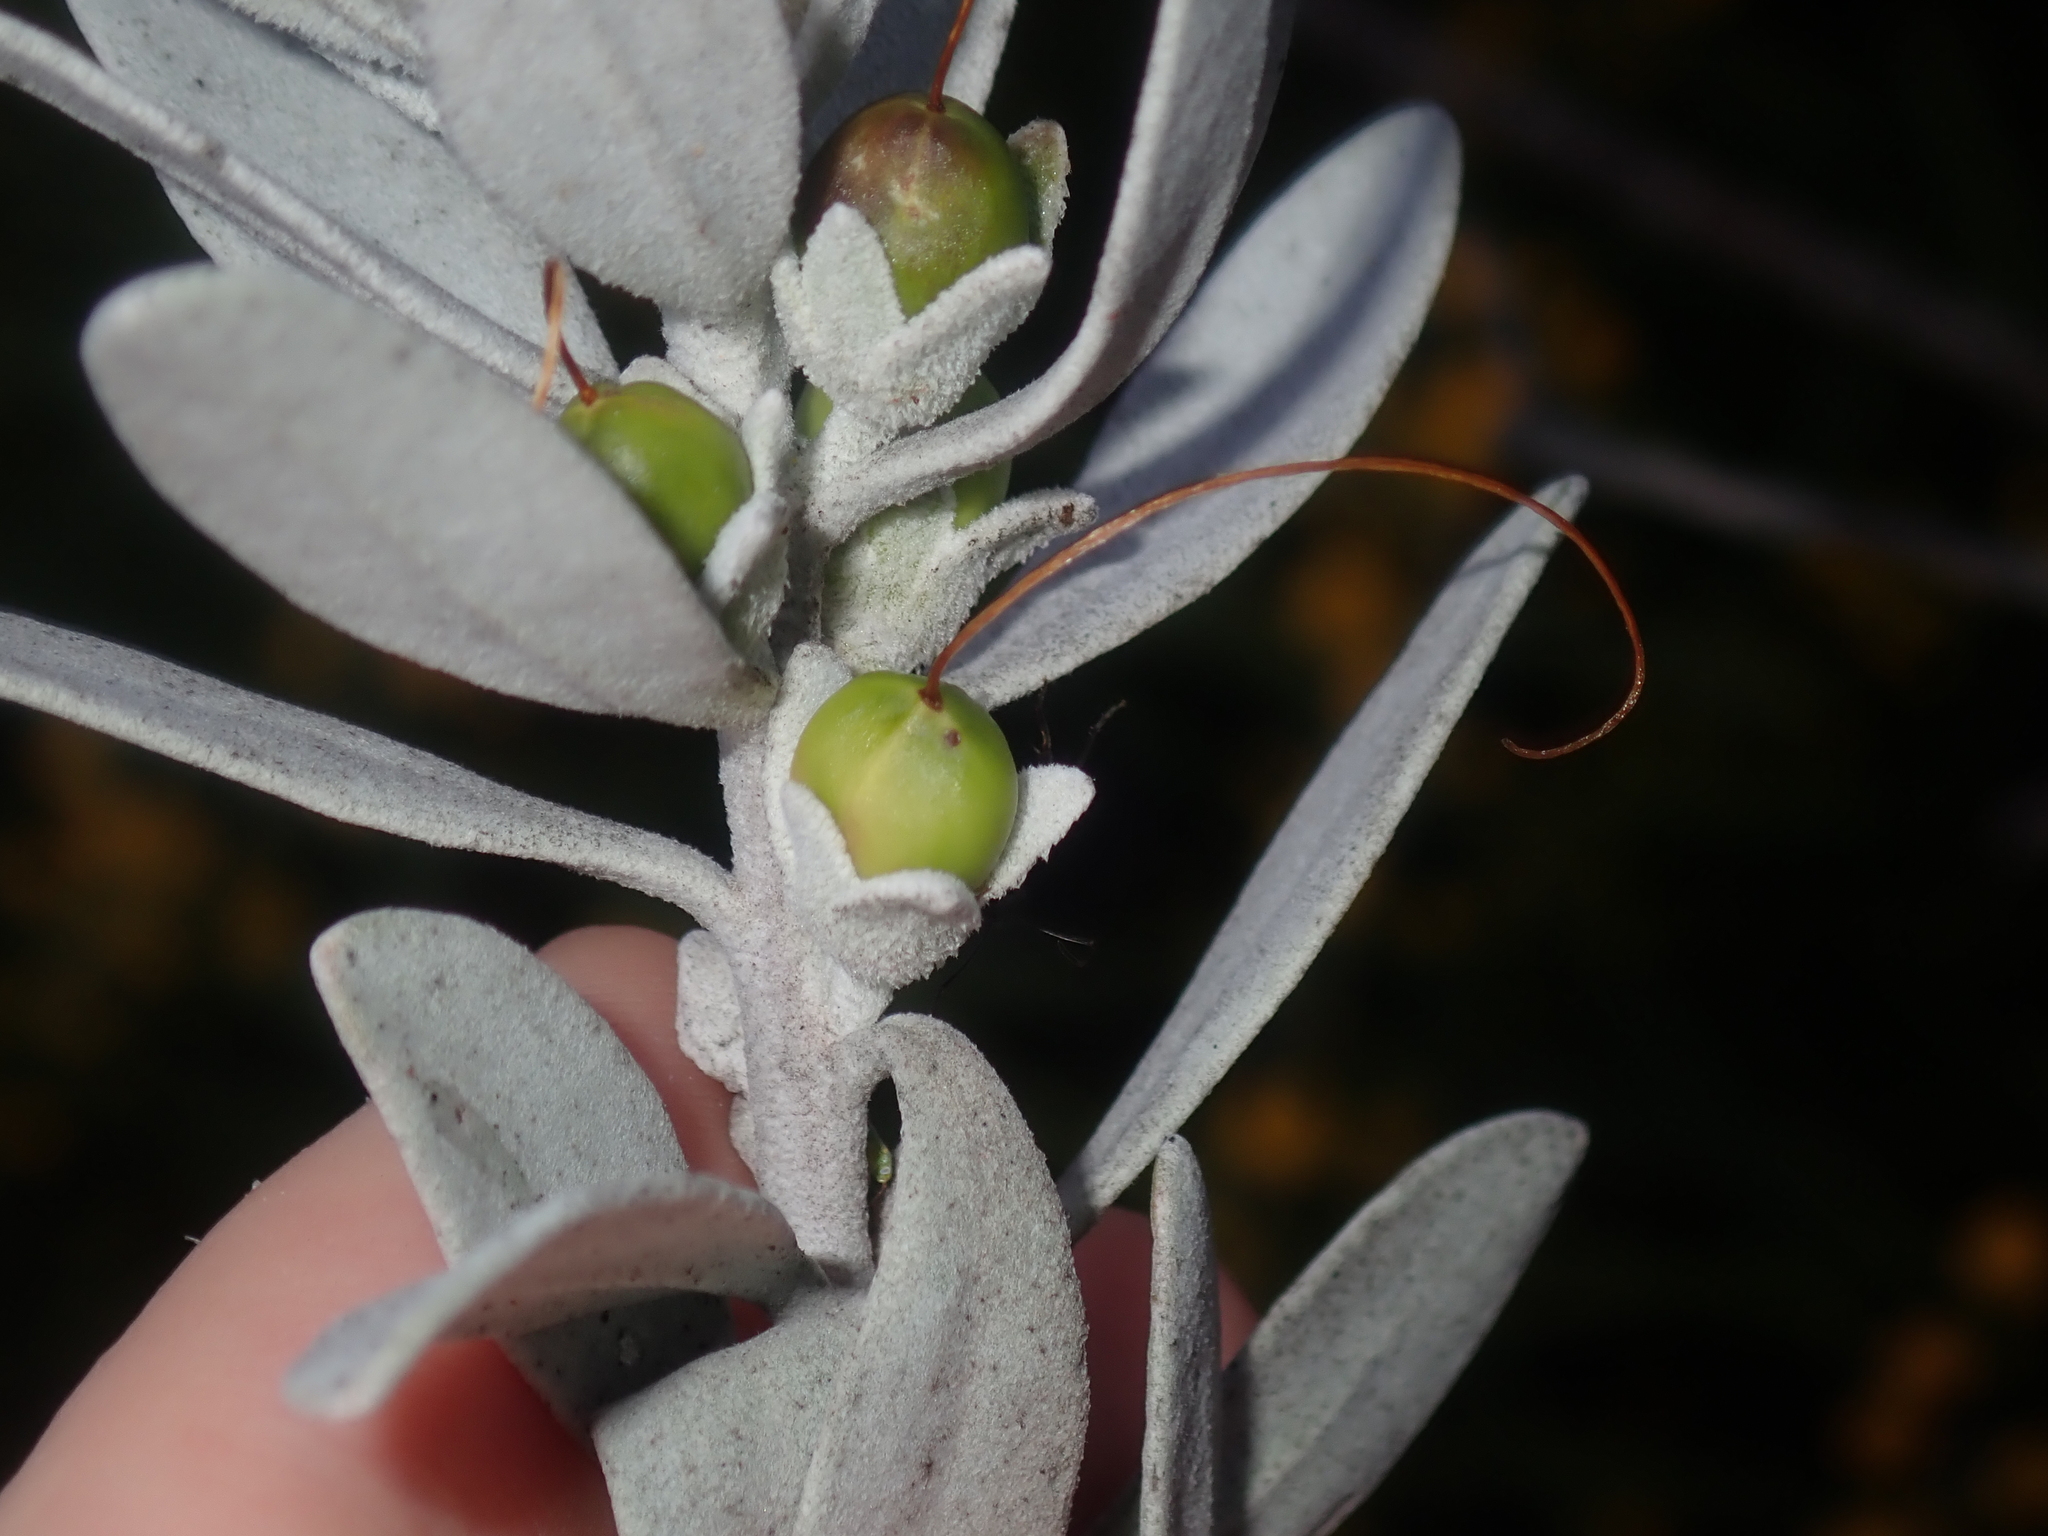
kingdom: Plantae
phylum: Tracheophyta
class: Magnoliopsida
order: Lamiales
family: Scrophulariaceae
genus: Eremophila
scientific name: Eremophila glabra
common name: Black-fuchsia
